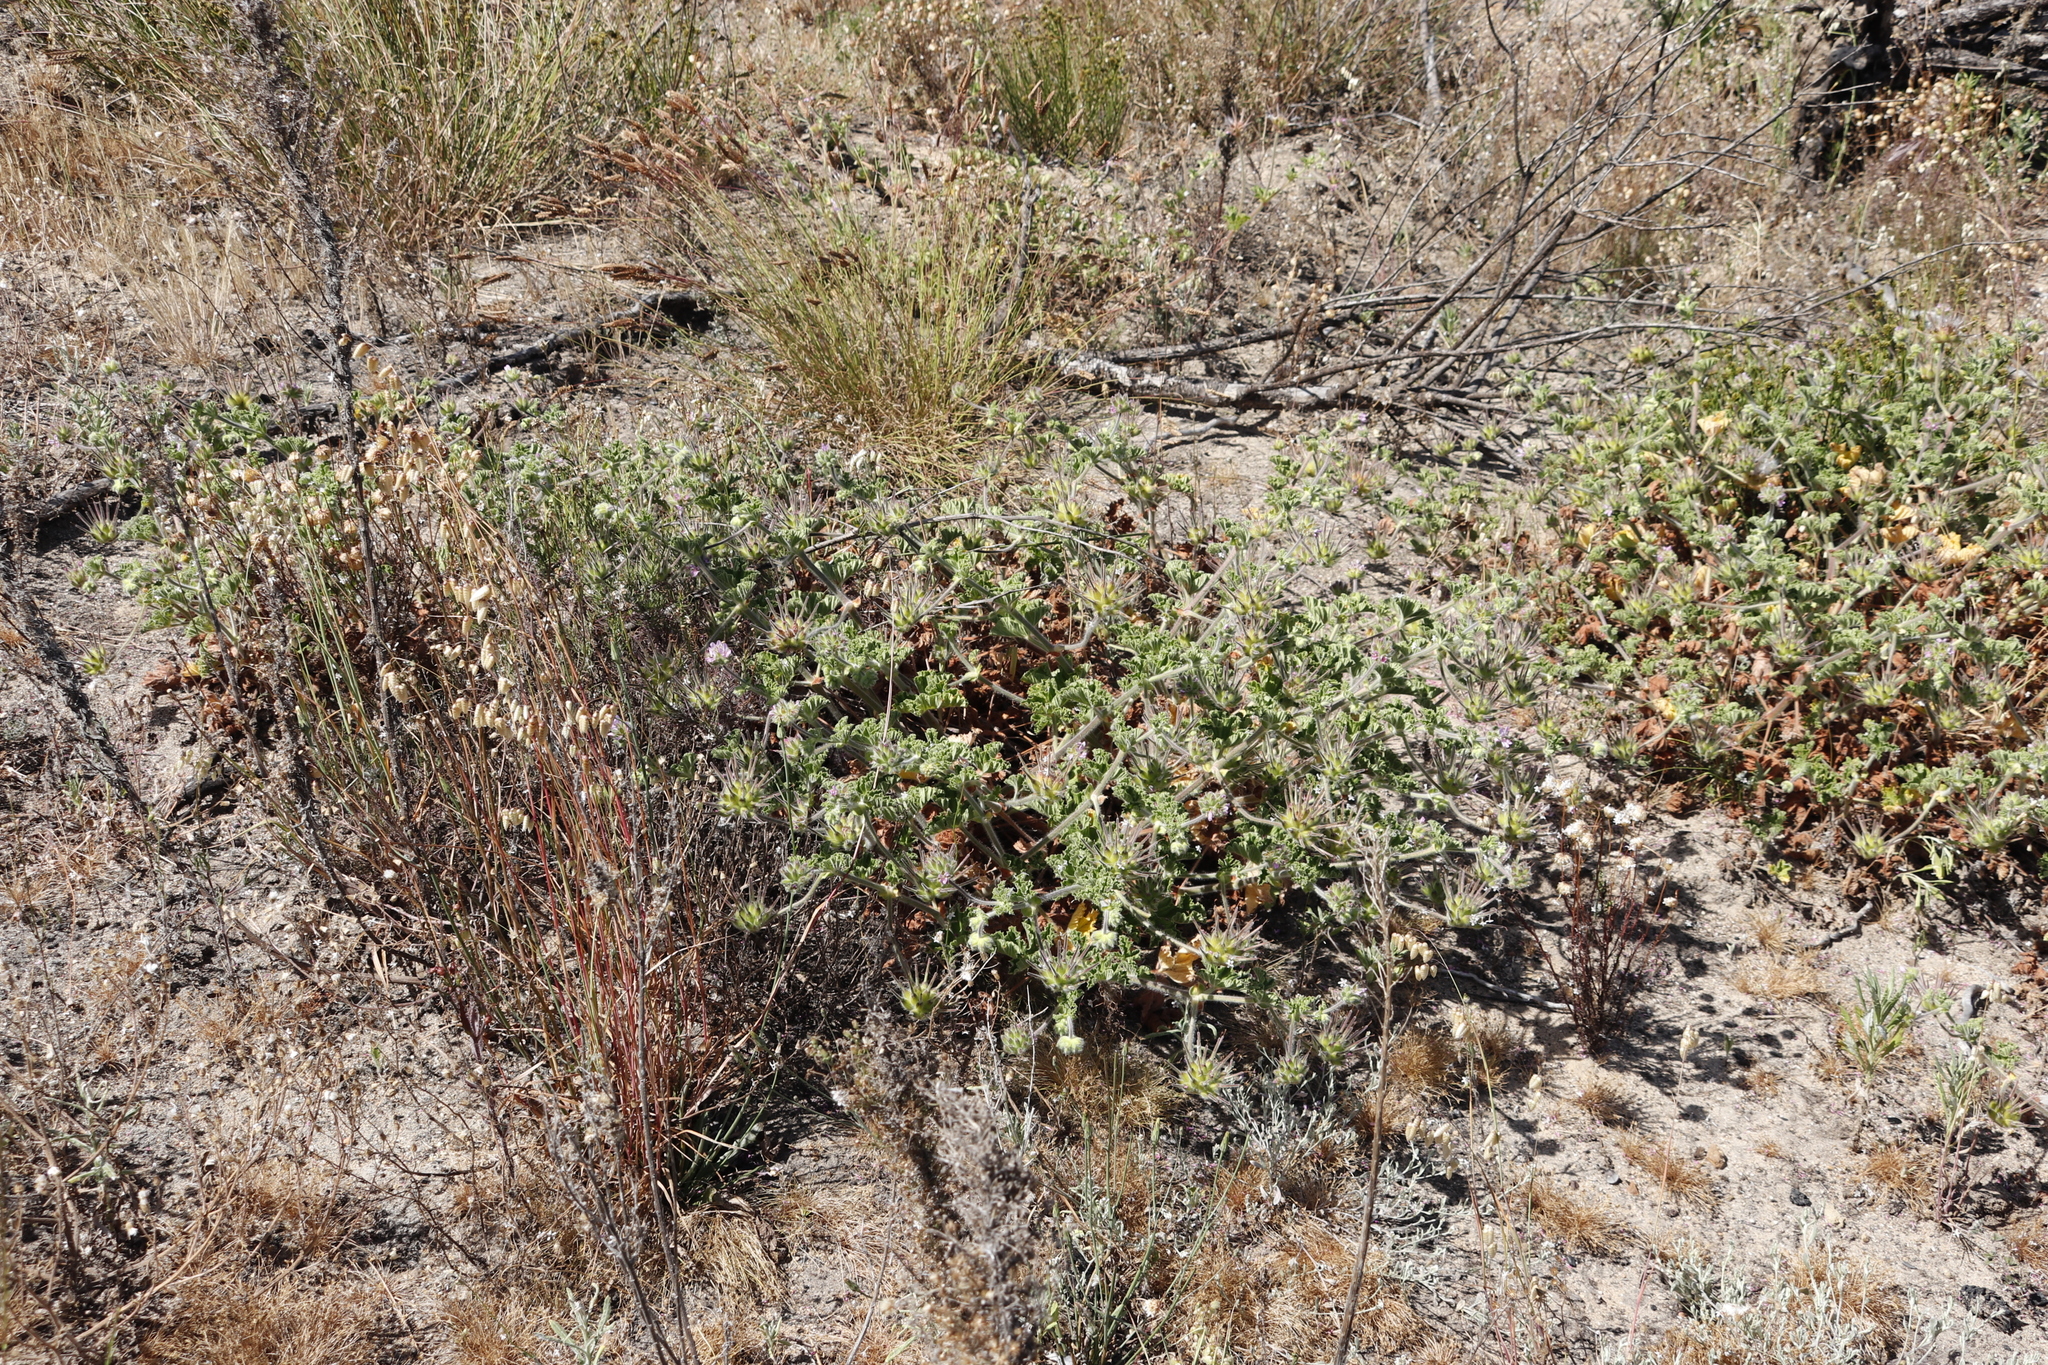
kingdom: Plantae
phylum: Tracheophyta
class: Magnoliopsida
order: Geraniales
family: Geraniaceae
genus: Pelargonium
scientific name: Pelargonium capitatum
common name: Rose scented geranium
